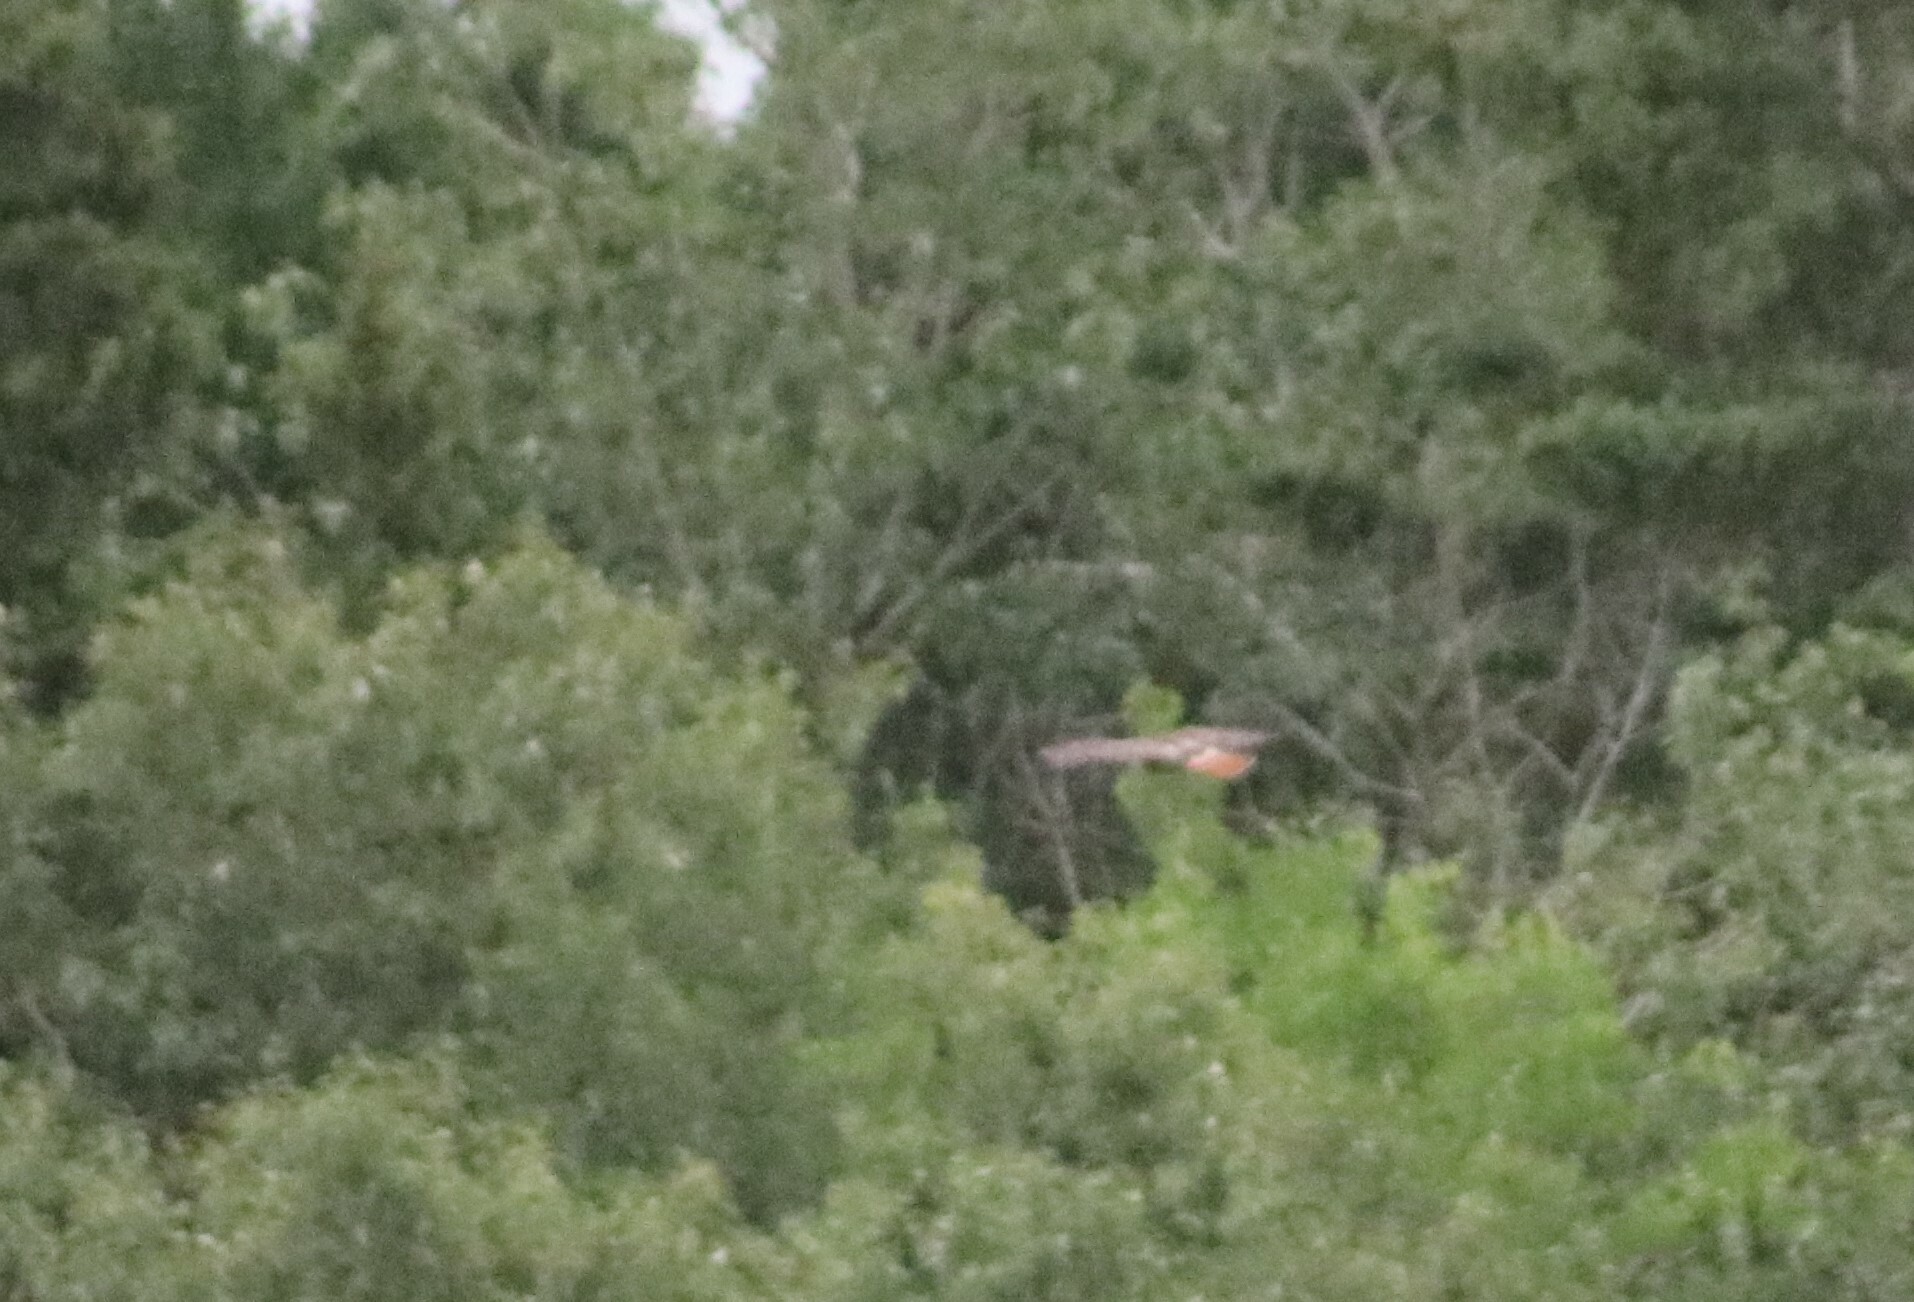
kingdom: Animalia
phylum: Chordata
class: Aves
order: Accipitriformes
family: Accipitridae
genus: Buteo
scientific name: Buteo jamaicensis
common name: Red-tailed hawk
